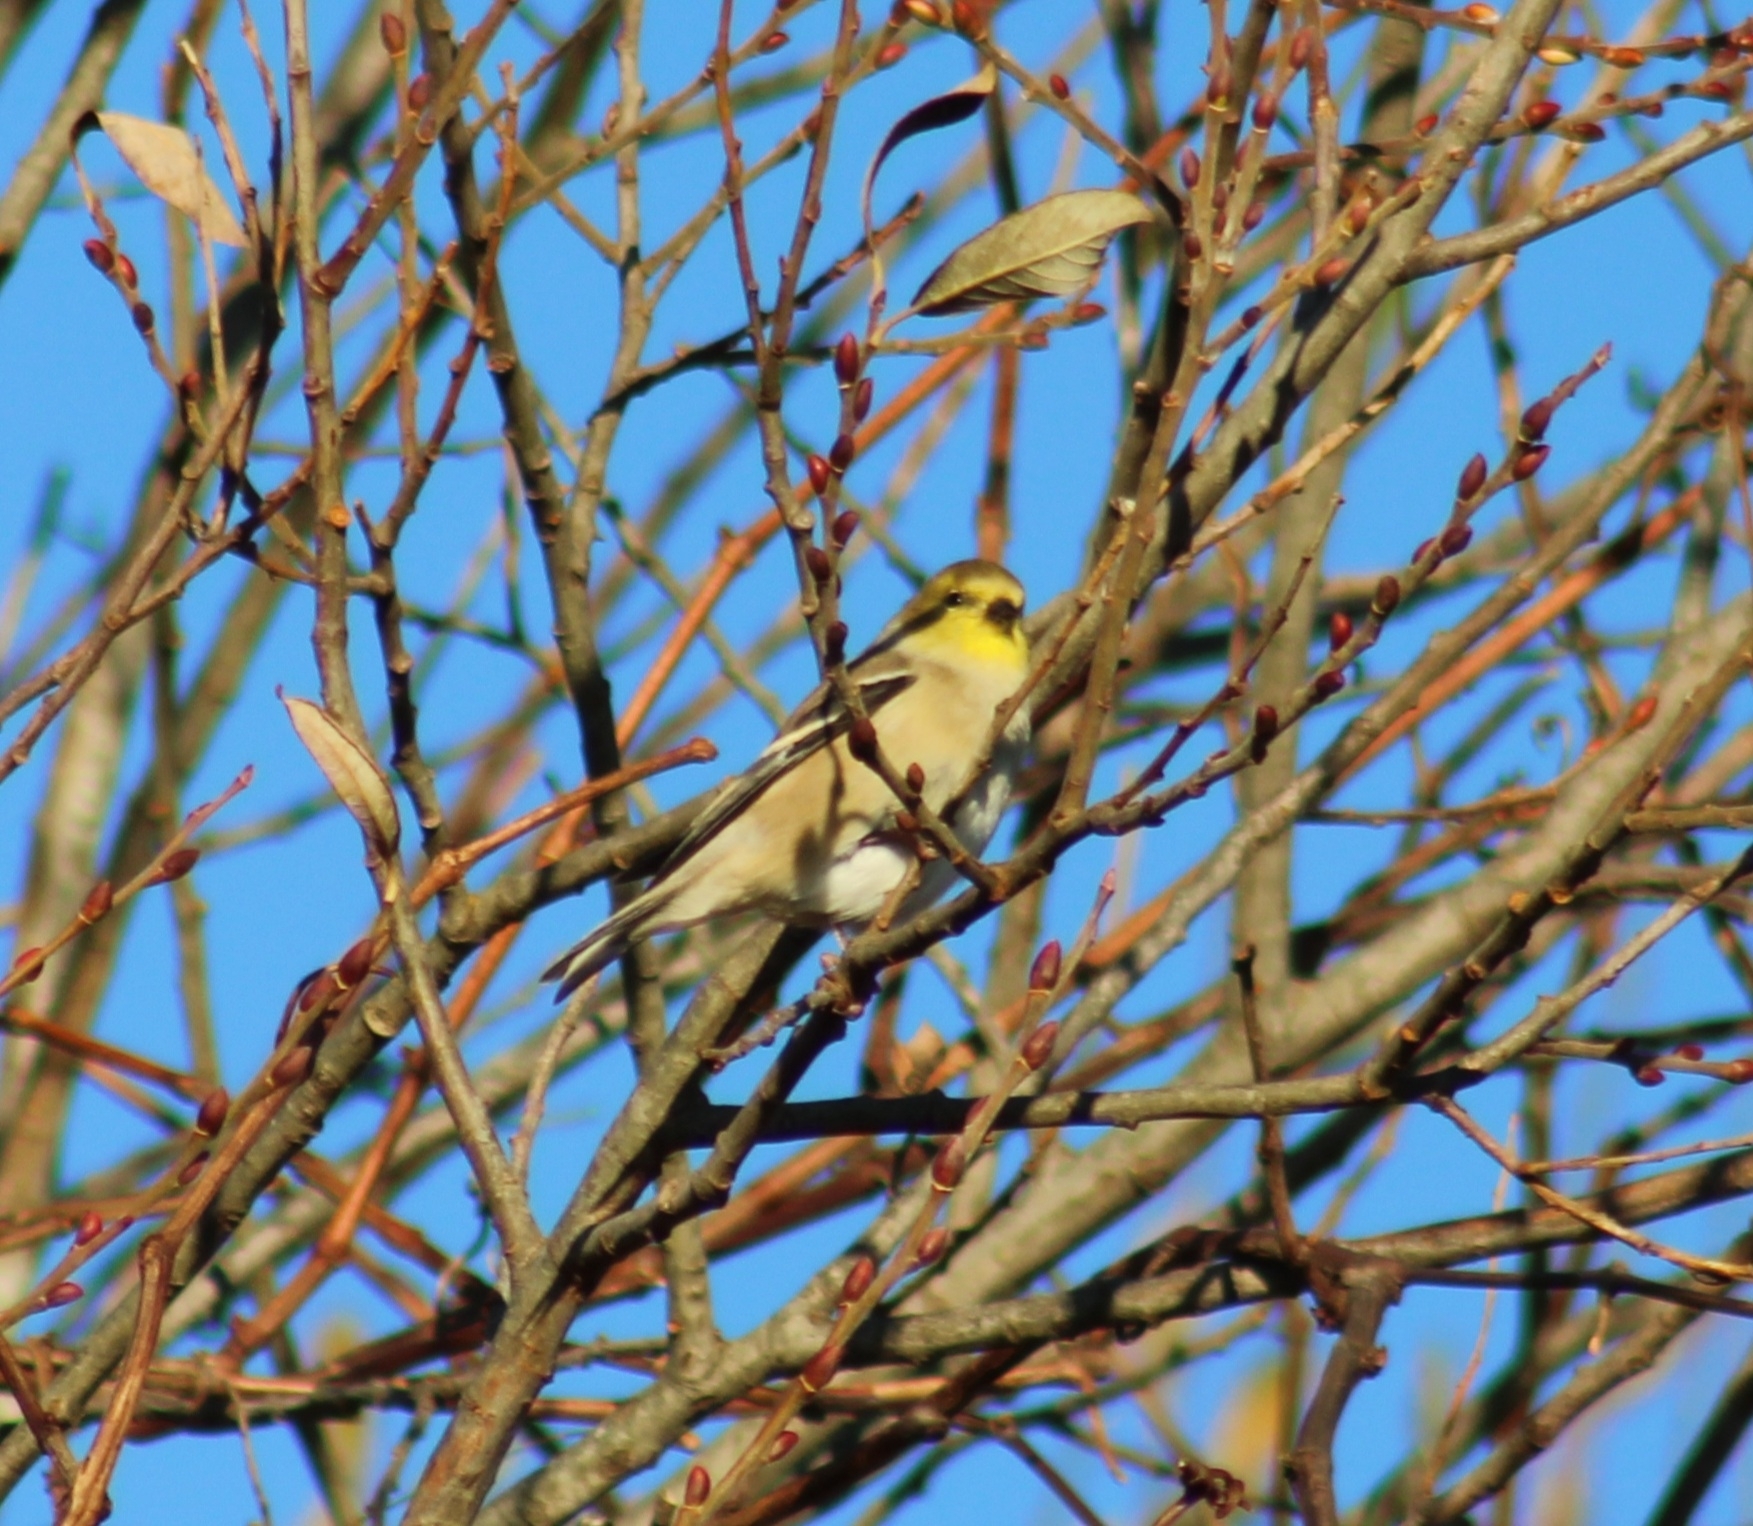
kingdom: Animalia
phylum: Chordata
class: Aves
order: Passeriformes
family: Fringillidae
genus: Spinus
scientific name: Spinus tristis
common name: American goldfinch
